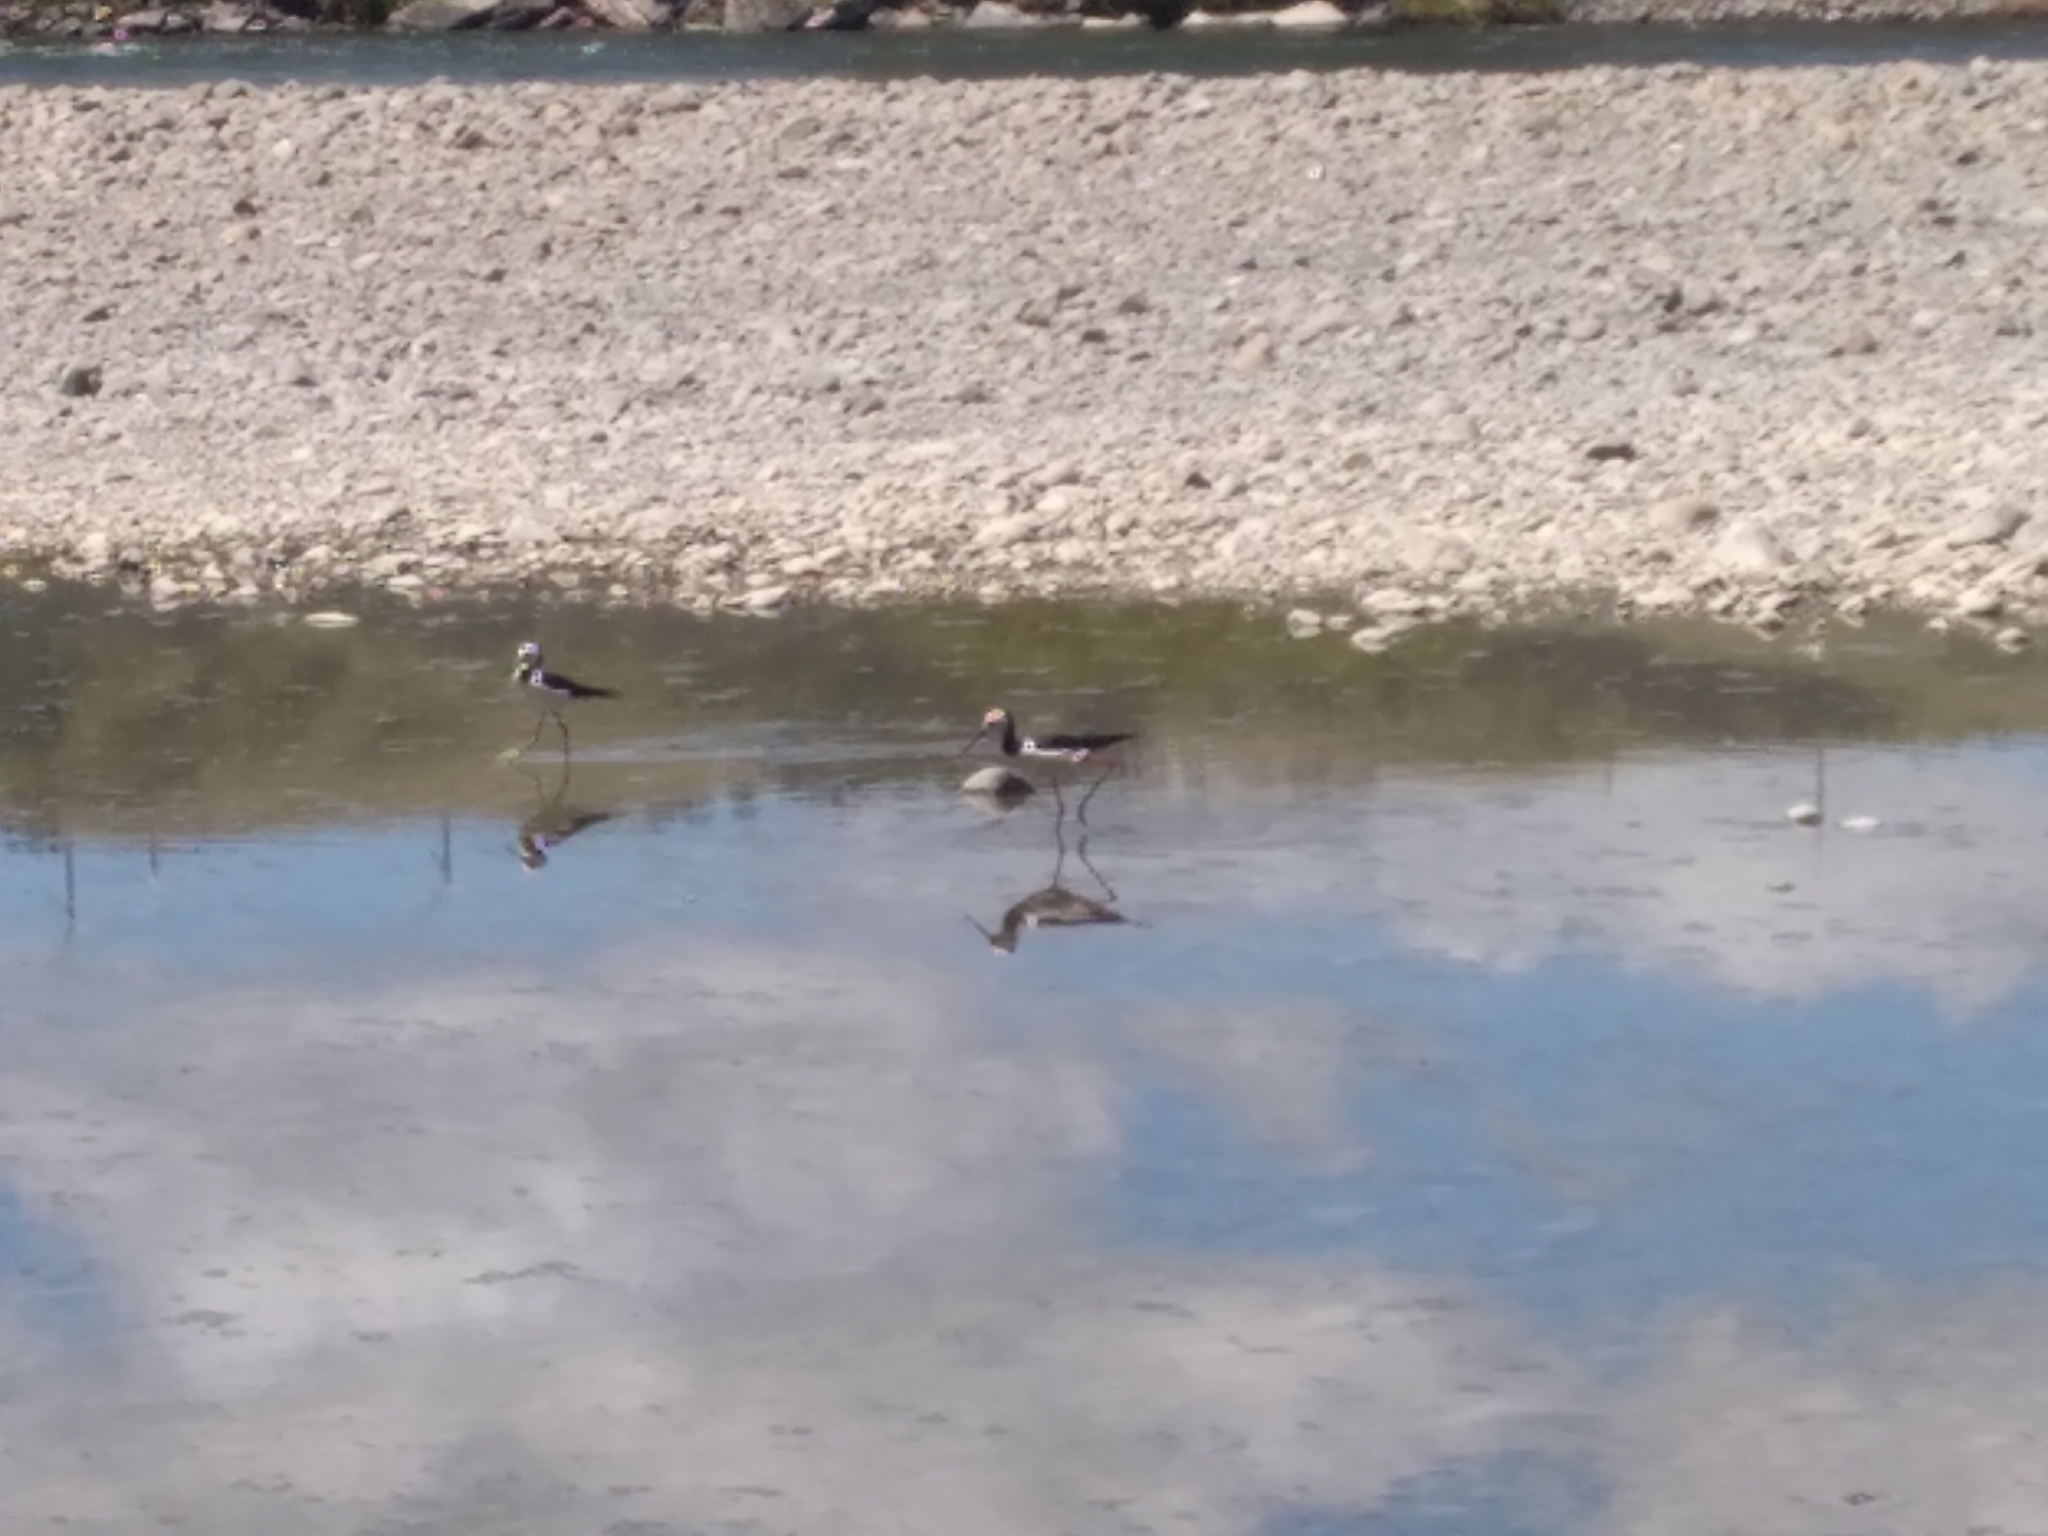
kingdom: Animalia
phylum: Chordata
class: Aves
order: Charadriiformes
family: Recurvirostridae
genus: Himantopus
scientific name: Himantopus leucocephalus
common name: White-headed stilt
